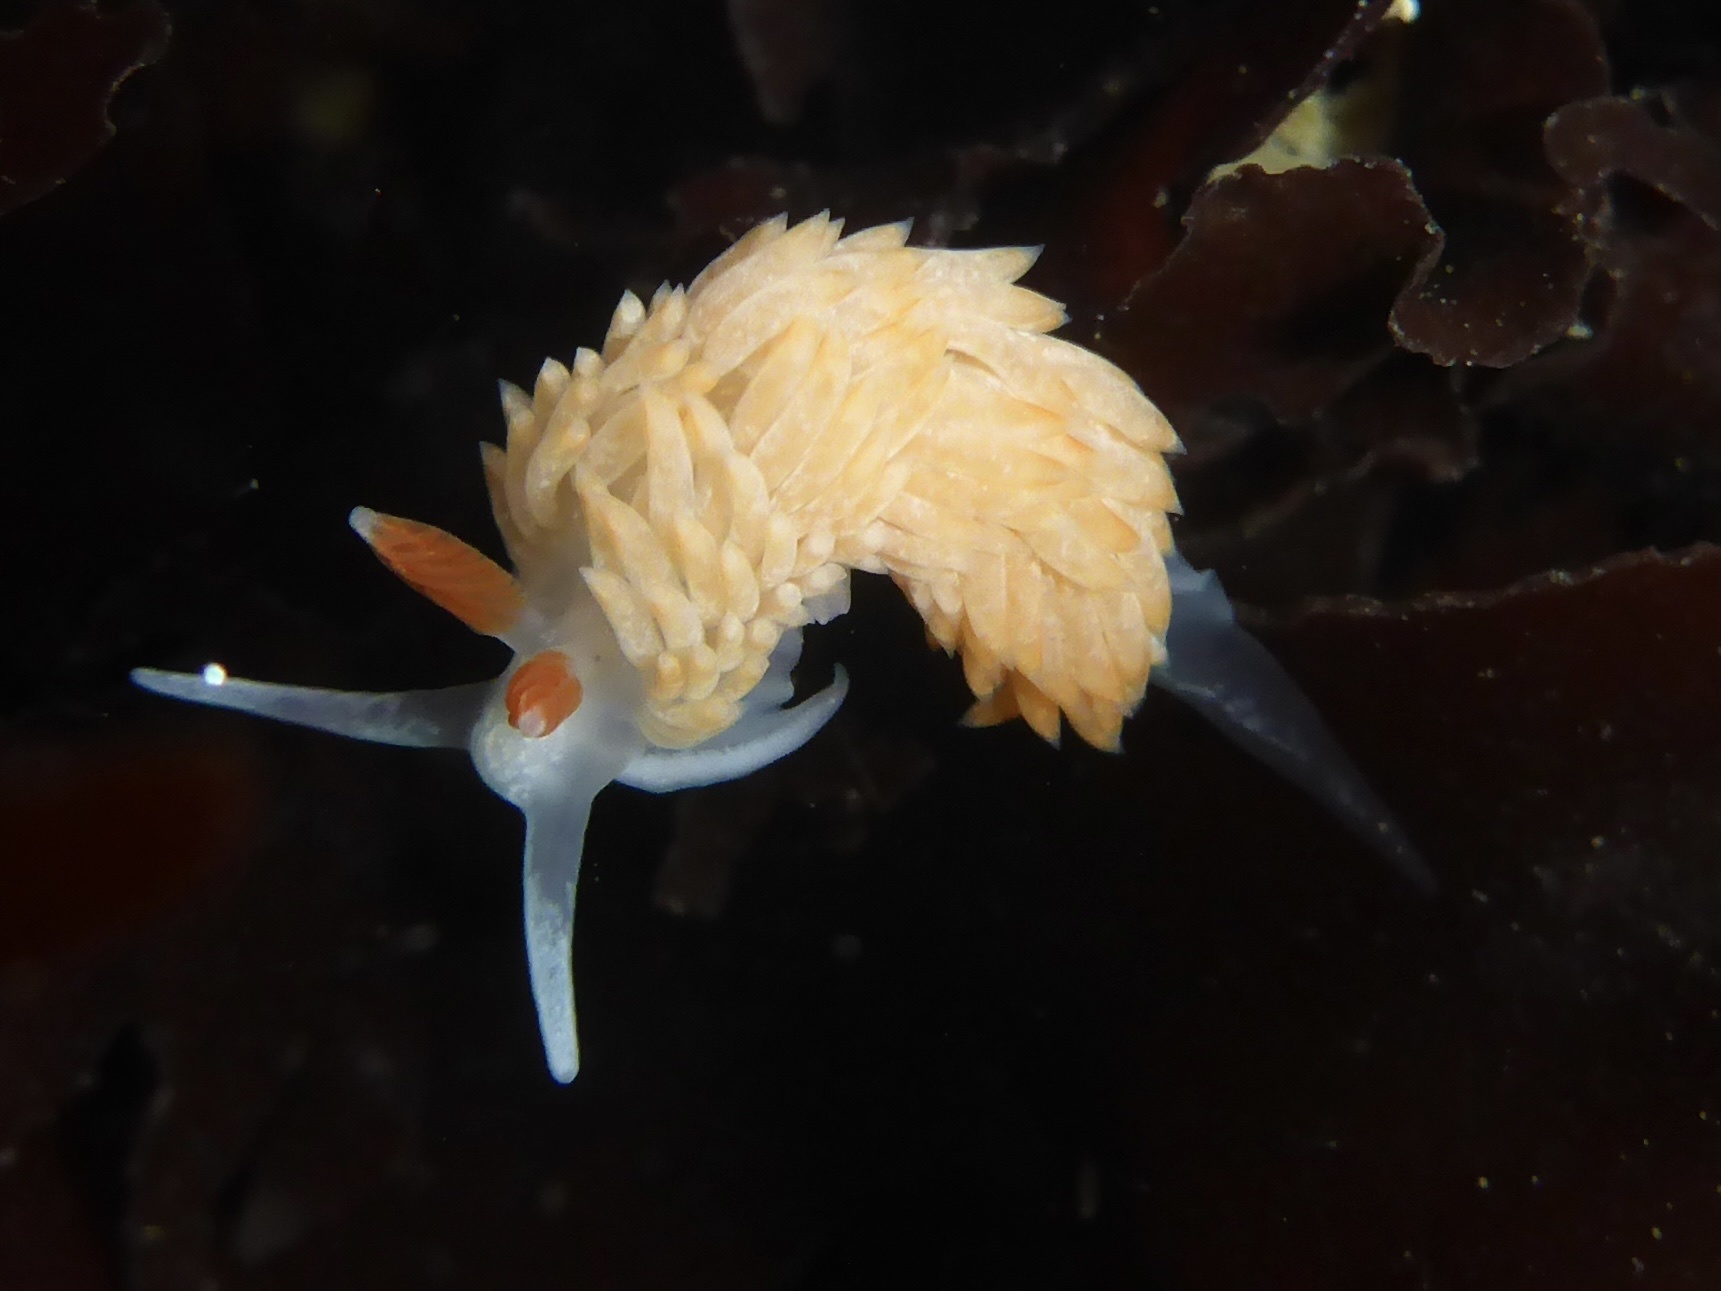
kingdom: Animalia
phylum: Mollusca
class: Gastropoda
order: Nudibranchia
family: Aeolidiidae
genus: Anteaeolidiella
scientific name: Anteaeolidiella oliviae
